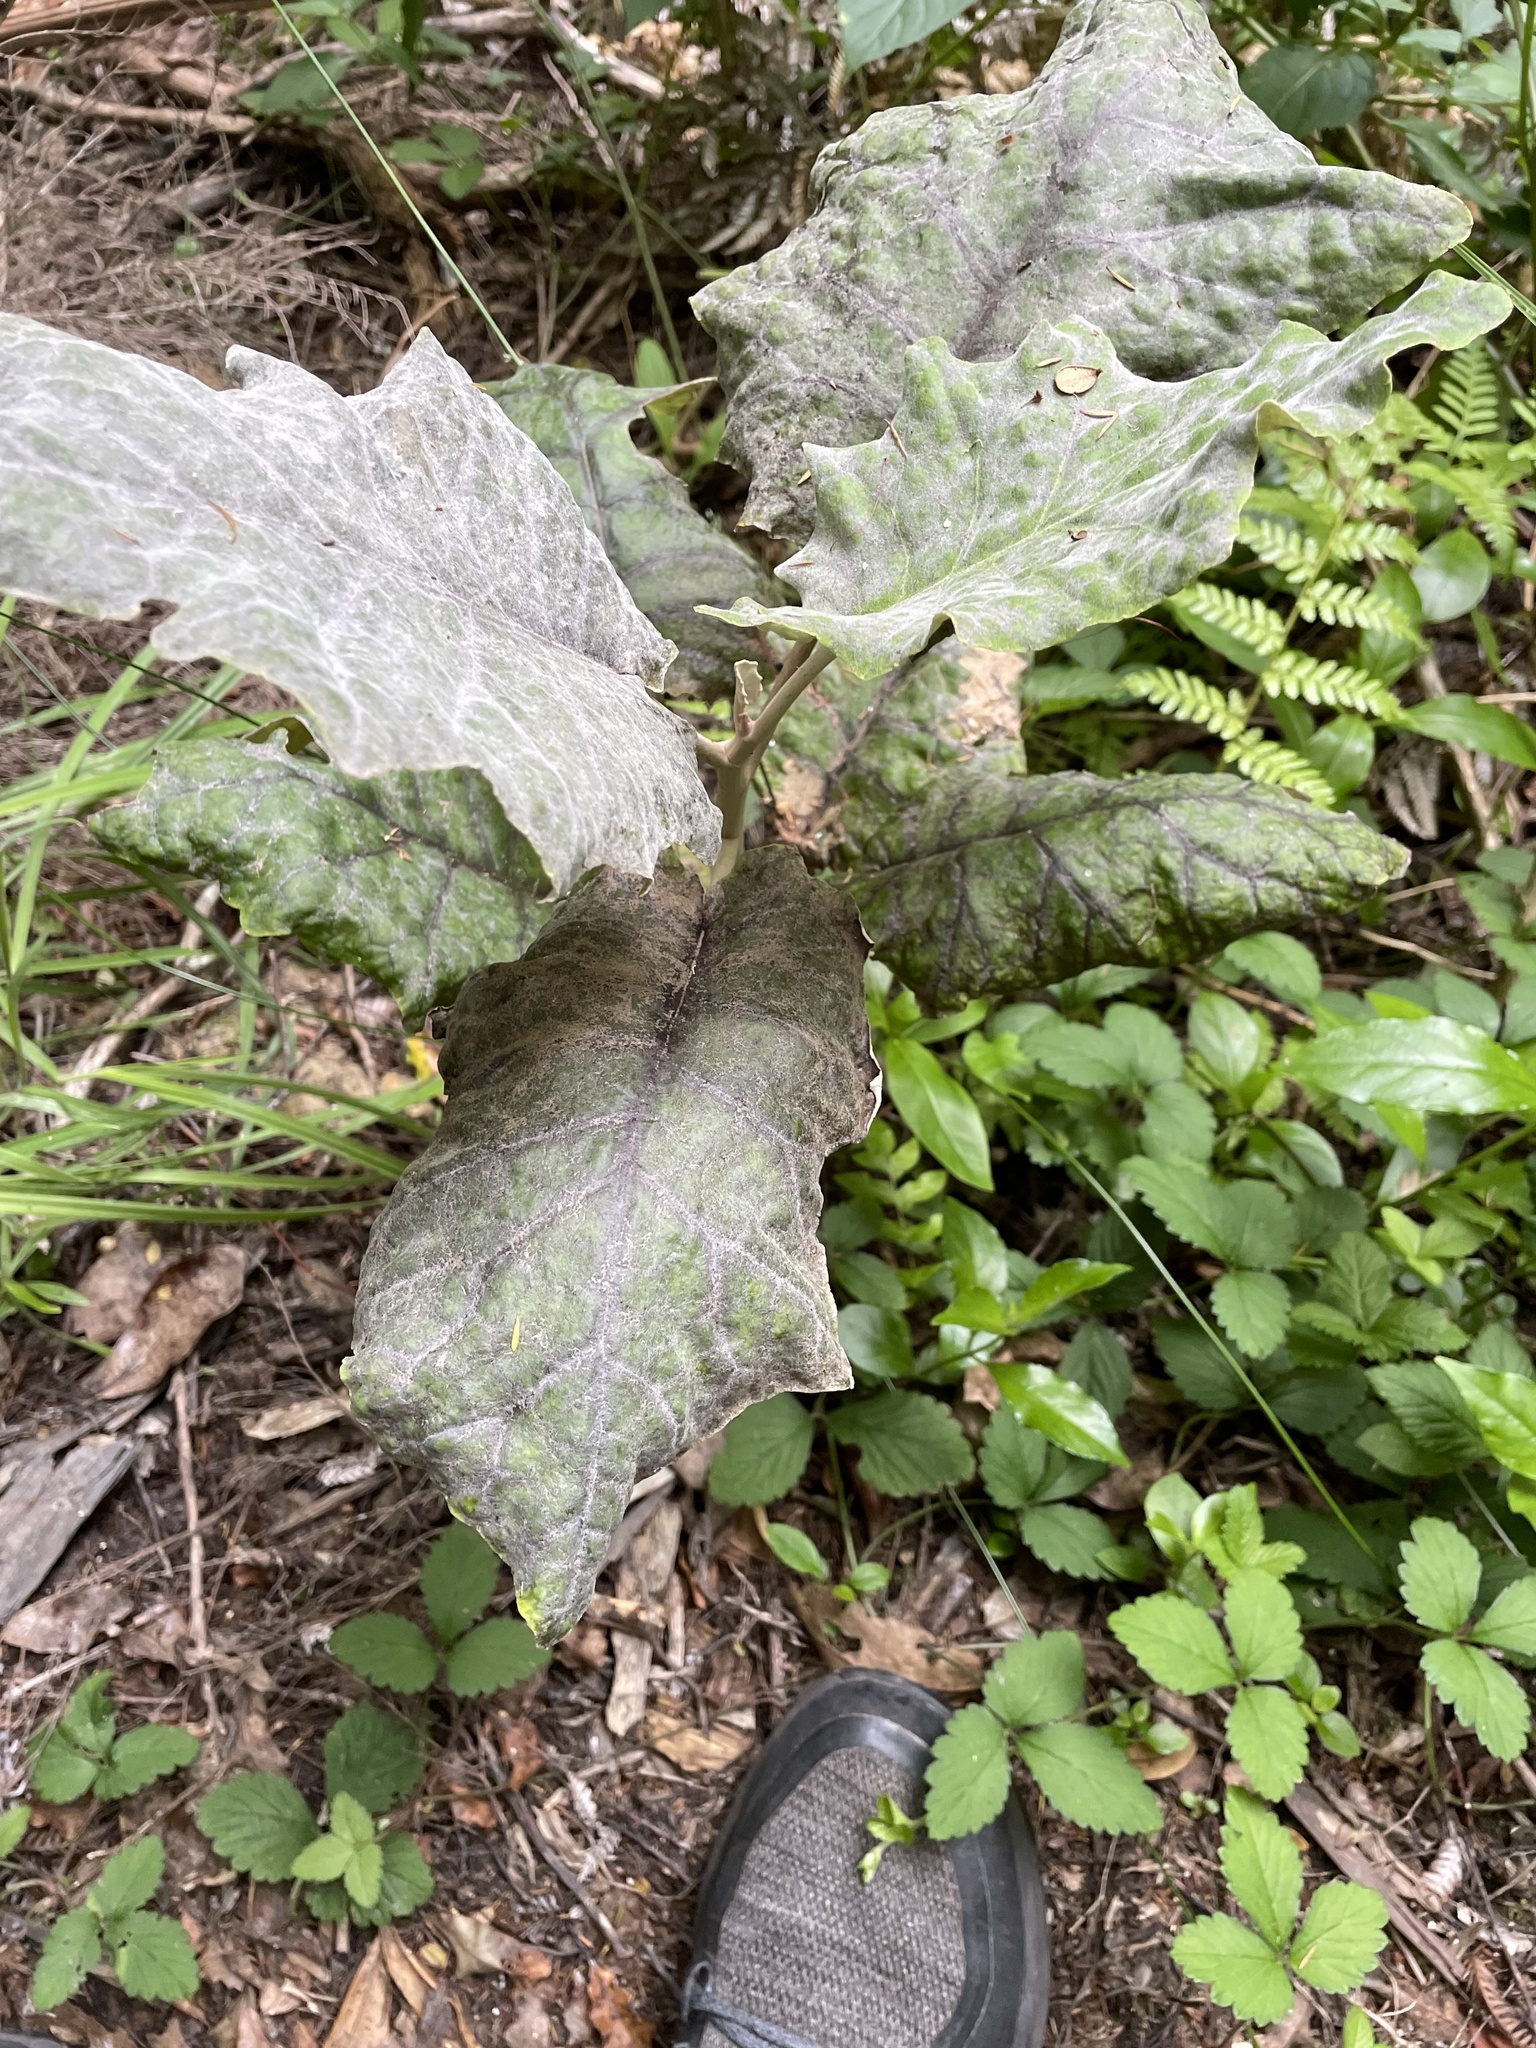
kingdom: Plantae
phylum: Tracheophyta
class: Magnoliopsida
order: Asterales
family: Asteraceae
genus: Brachyglottis
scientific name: Brachyglottis repanda
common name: Hedge ragwort
